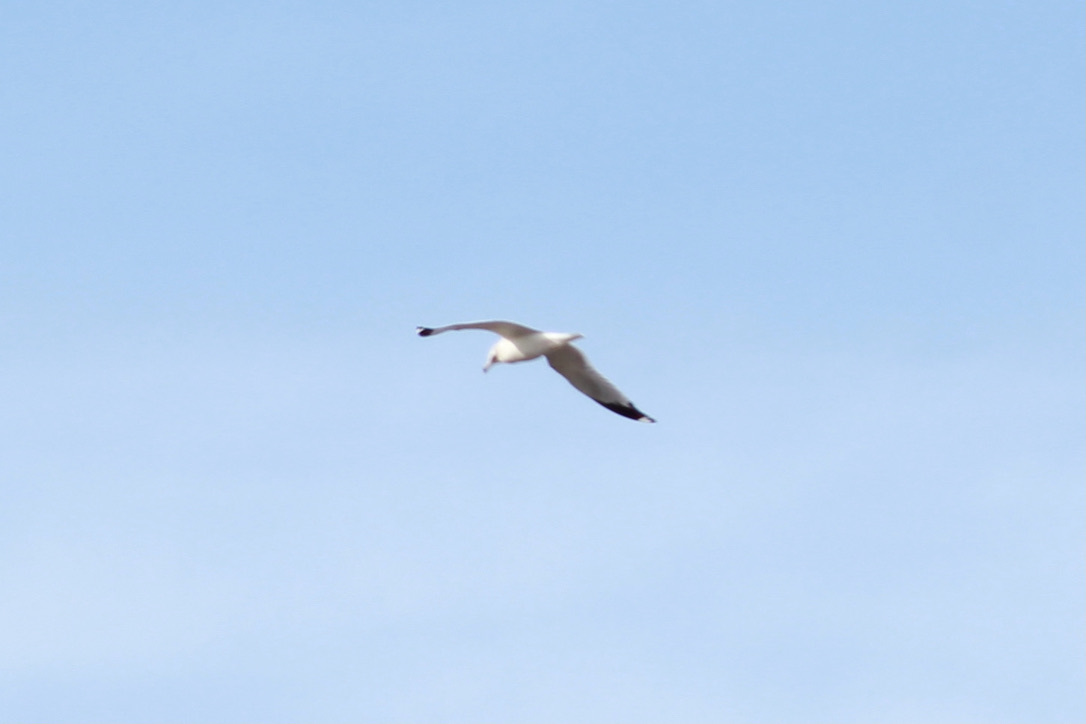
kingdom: Animalia
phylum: Chordata
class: Aves
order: Charadriiformes
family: Laridae
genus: Larus
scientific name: Larus delawarensis
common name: Ring-billed gull
